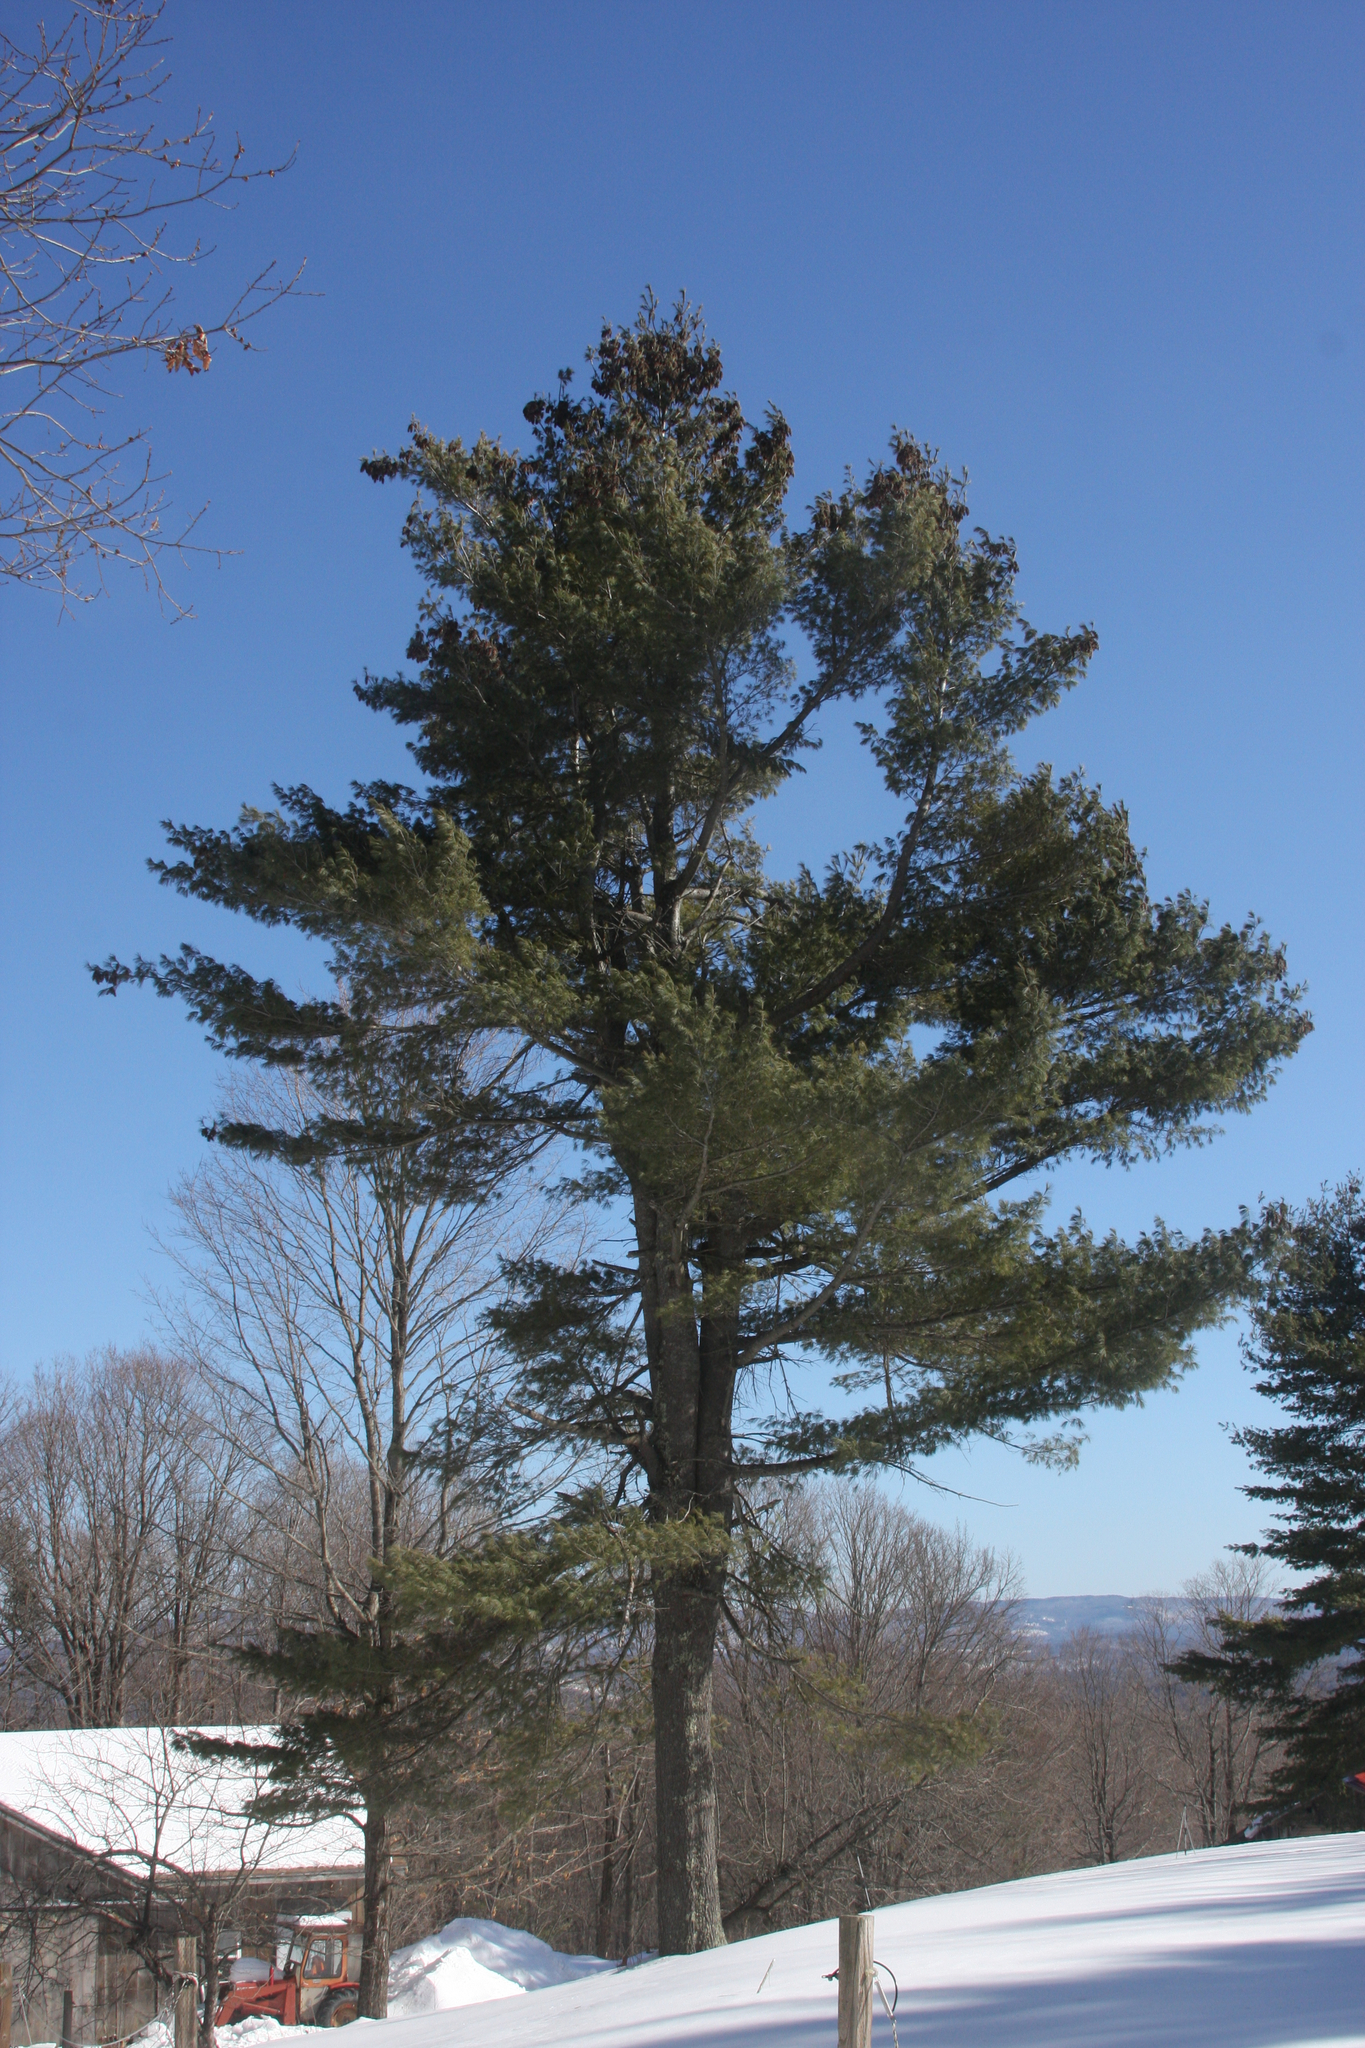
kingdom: Plantae
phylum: Tracheophyta
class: Pinopsida
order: Pinales
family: Pinaceae
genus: Pinus
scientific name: Pinus strobus
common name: Weymouth pine
